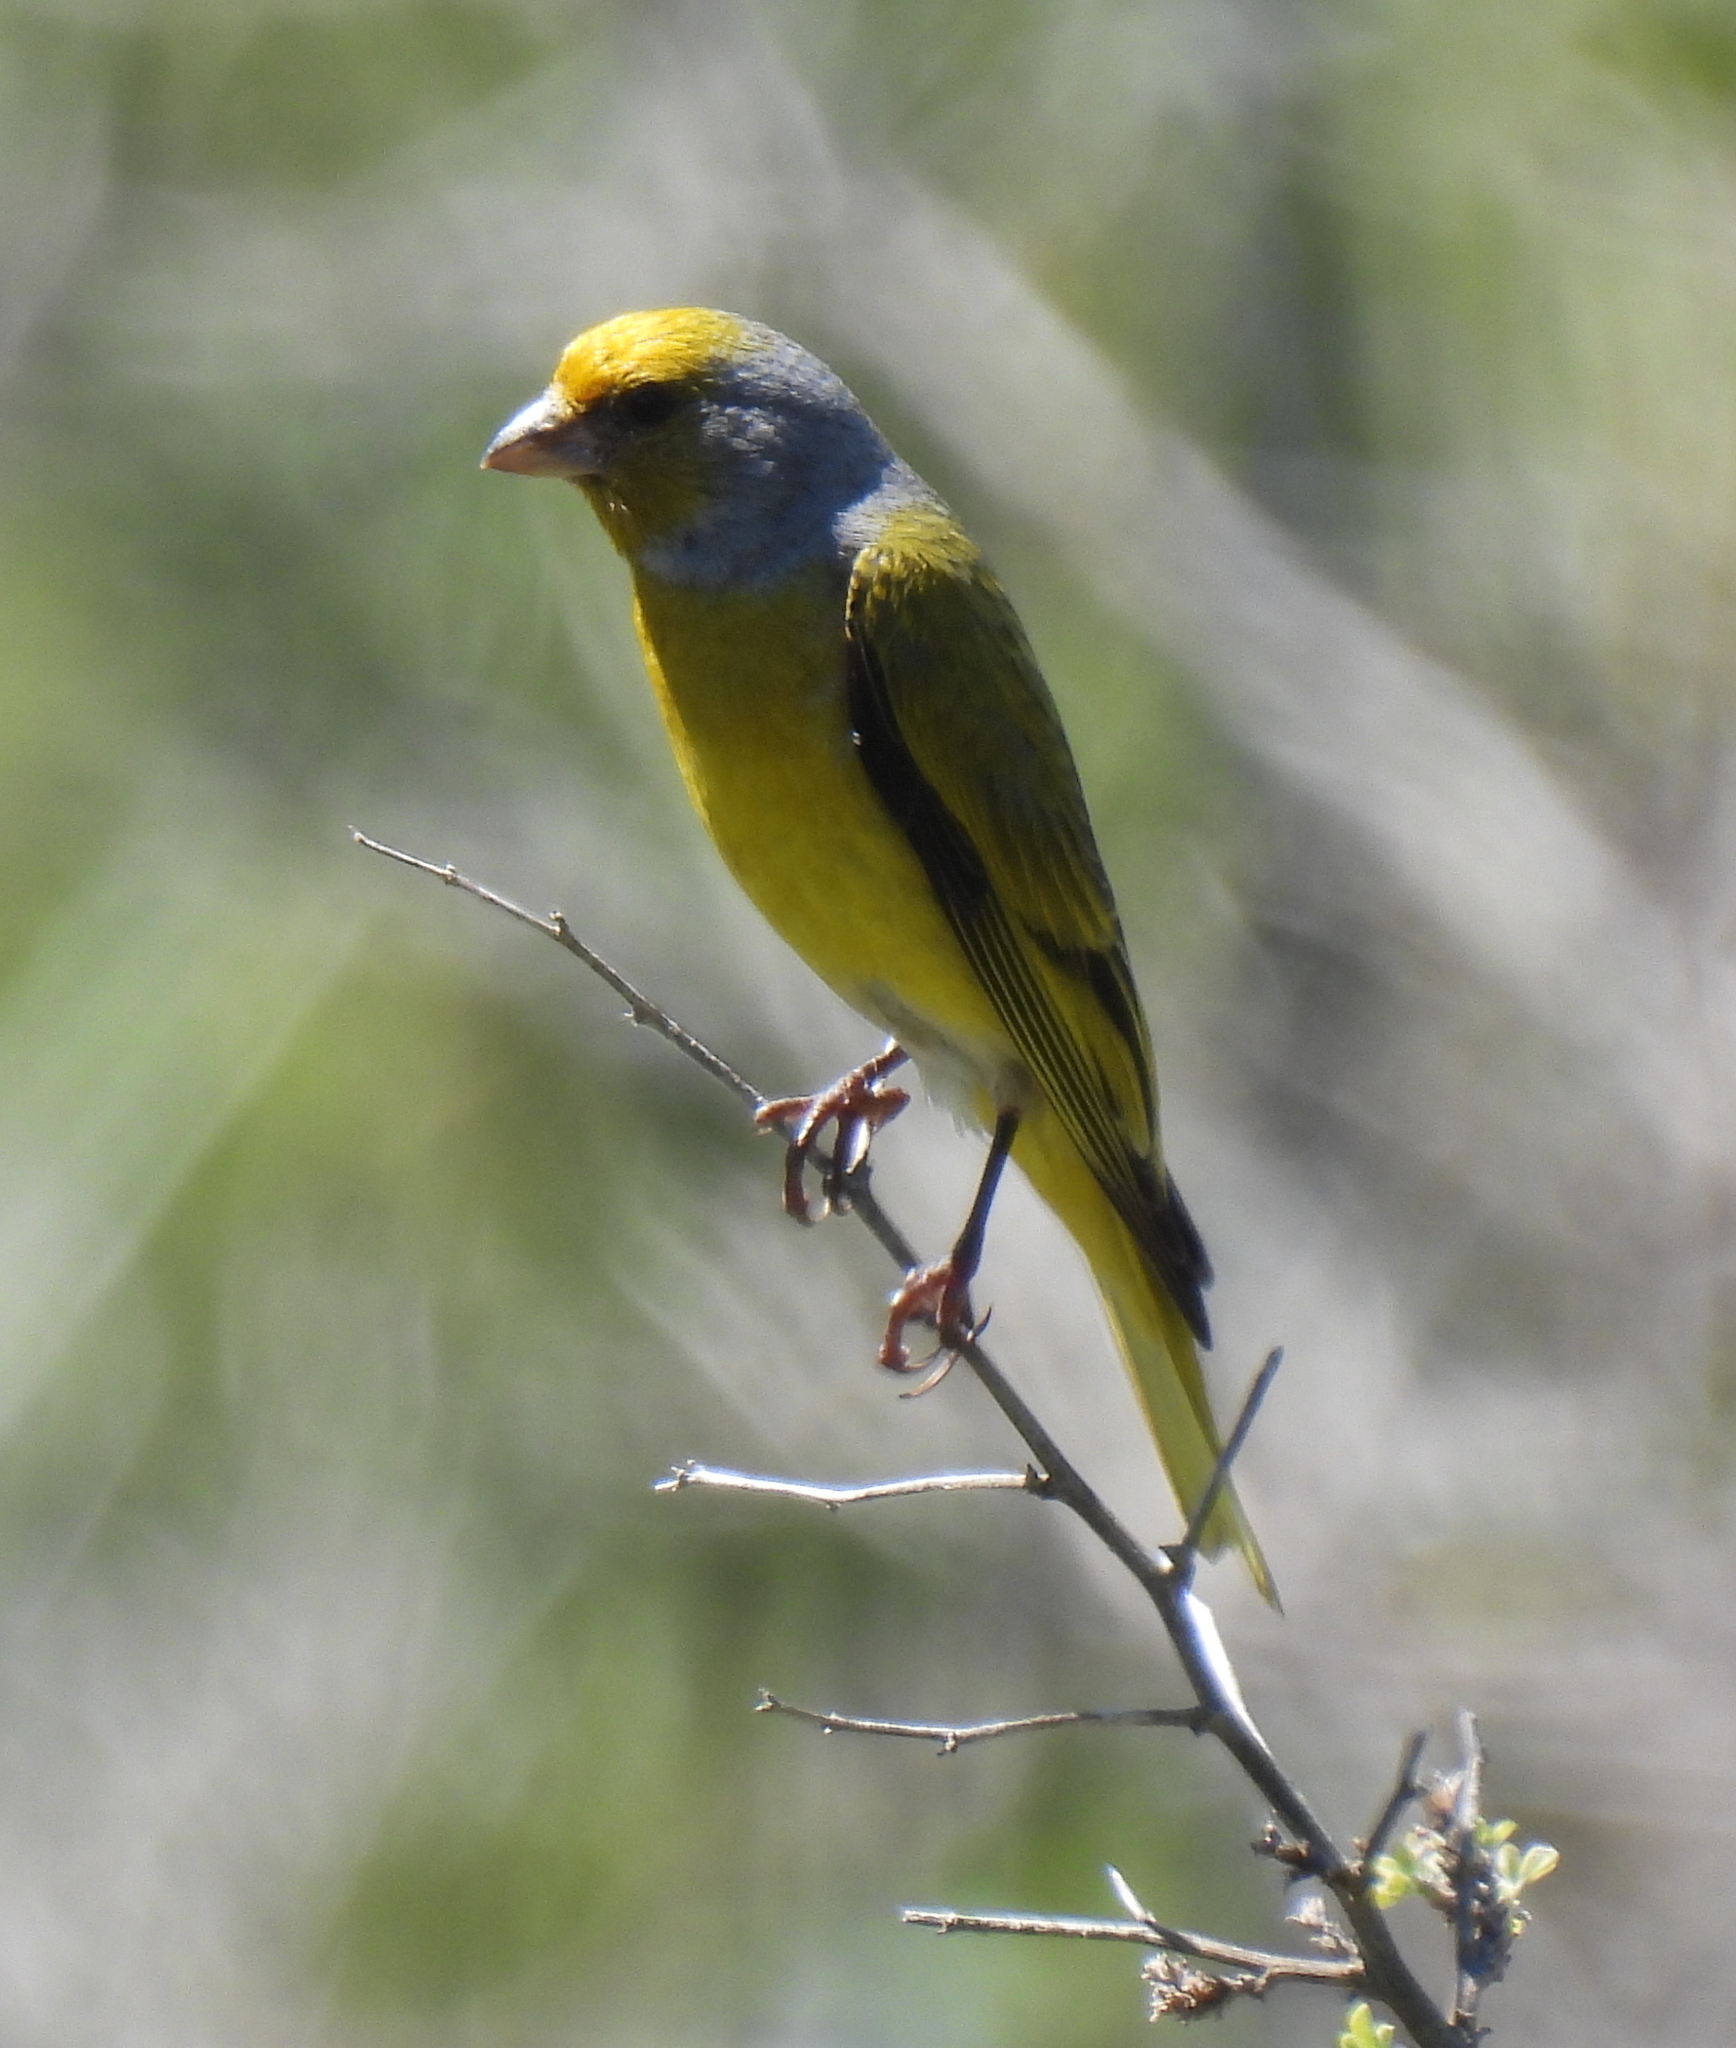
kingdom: Animalia
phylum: Chordata
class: Aves
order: Passeriformes
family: Fringillidae
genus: Serinus
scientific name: Serinus canicollis
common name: Cape canary
